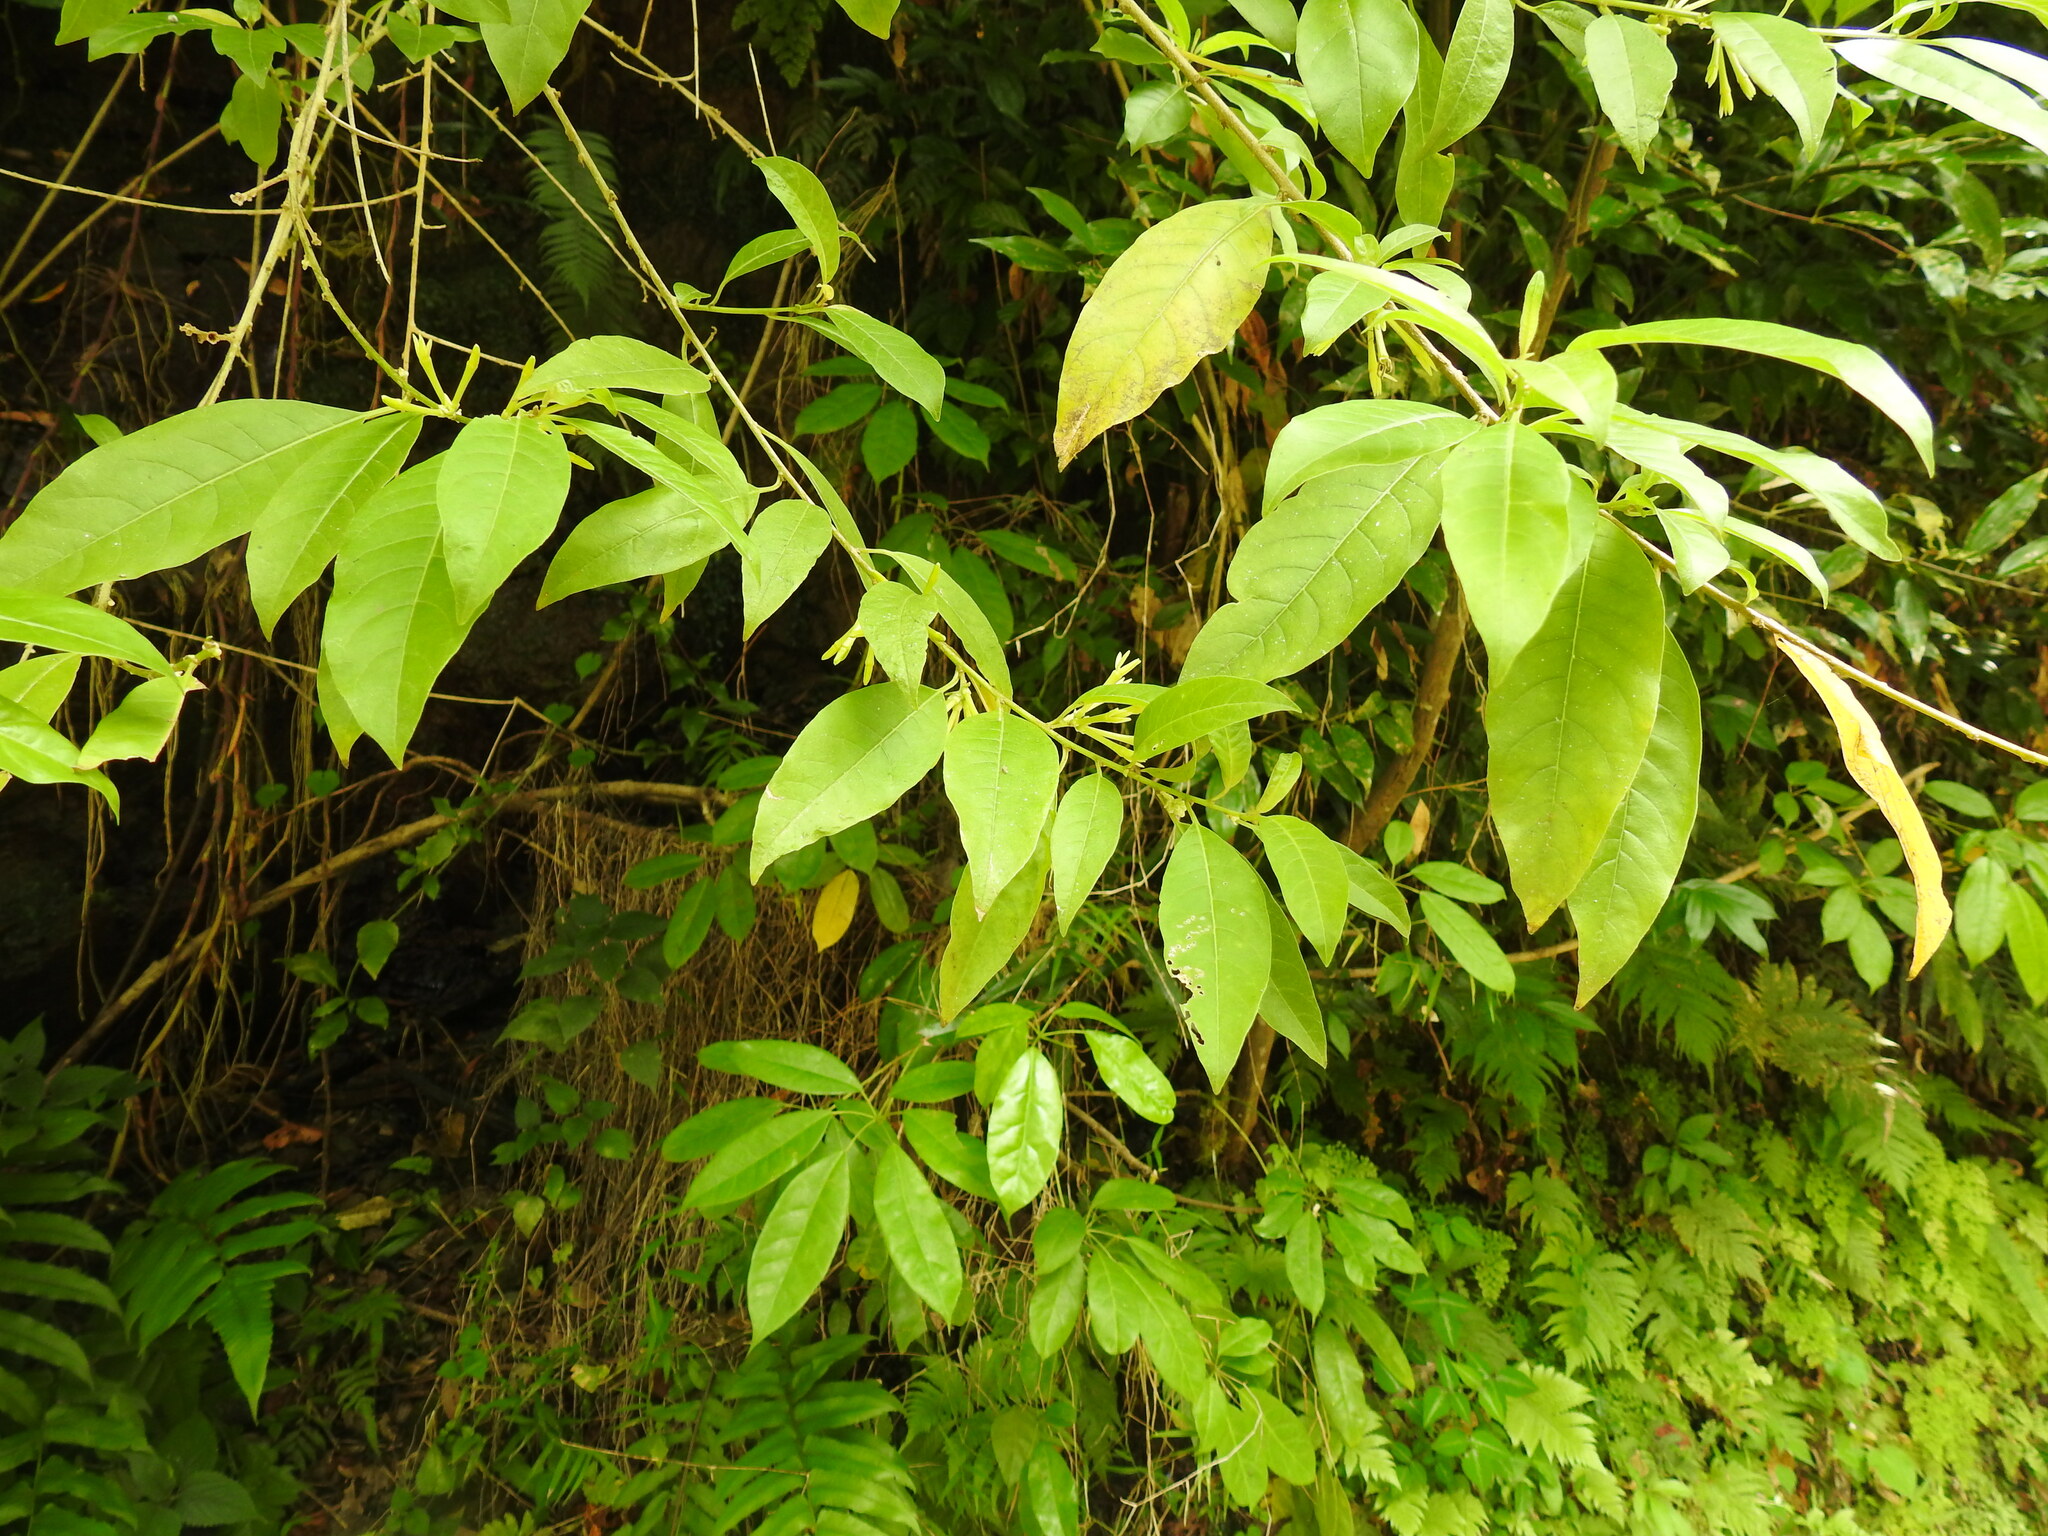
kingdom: Plantae
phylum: Tracheophyta
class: Magnoliopsida
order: Solanales
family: Solanaceae
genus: Cestrum
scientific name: Cestrum laevigatum
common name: Inkberry
